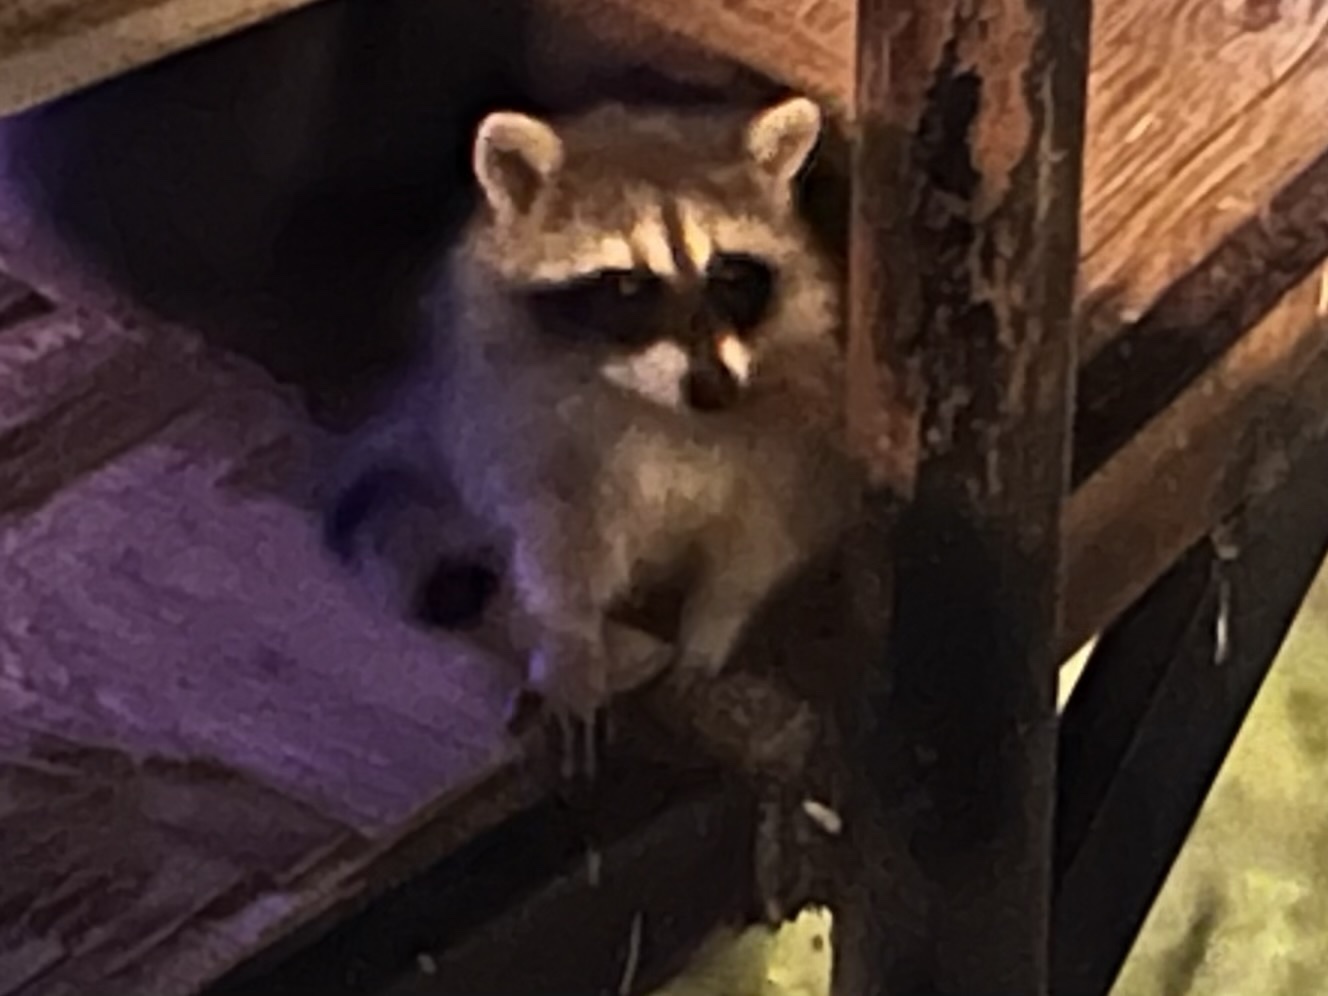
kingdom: Animalia
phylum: Chordata
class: Mammalia
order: Carnivora
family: Procyonidae
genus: Procyon
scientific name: Procyon lotor
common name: Raccoon
